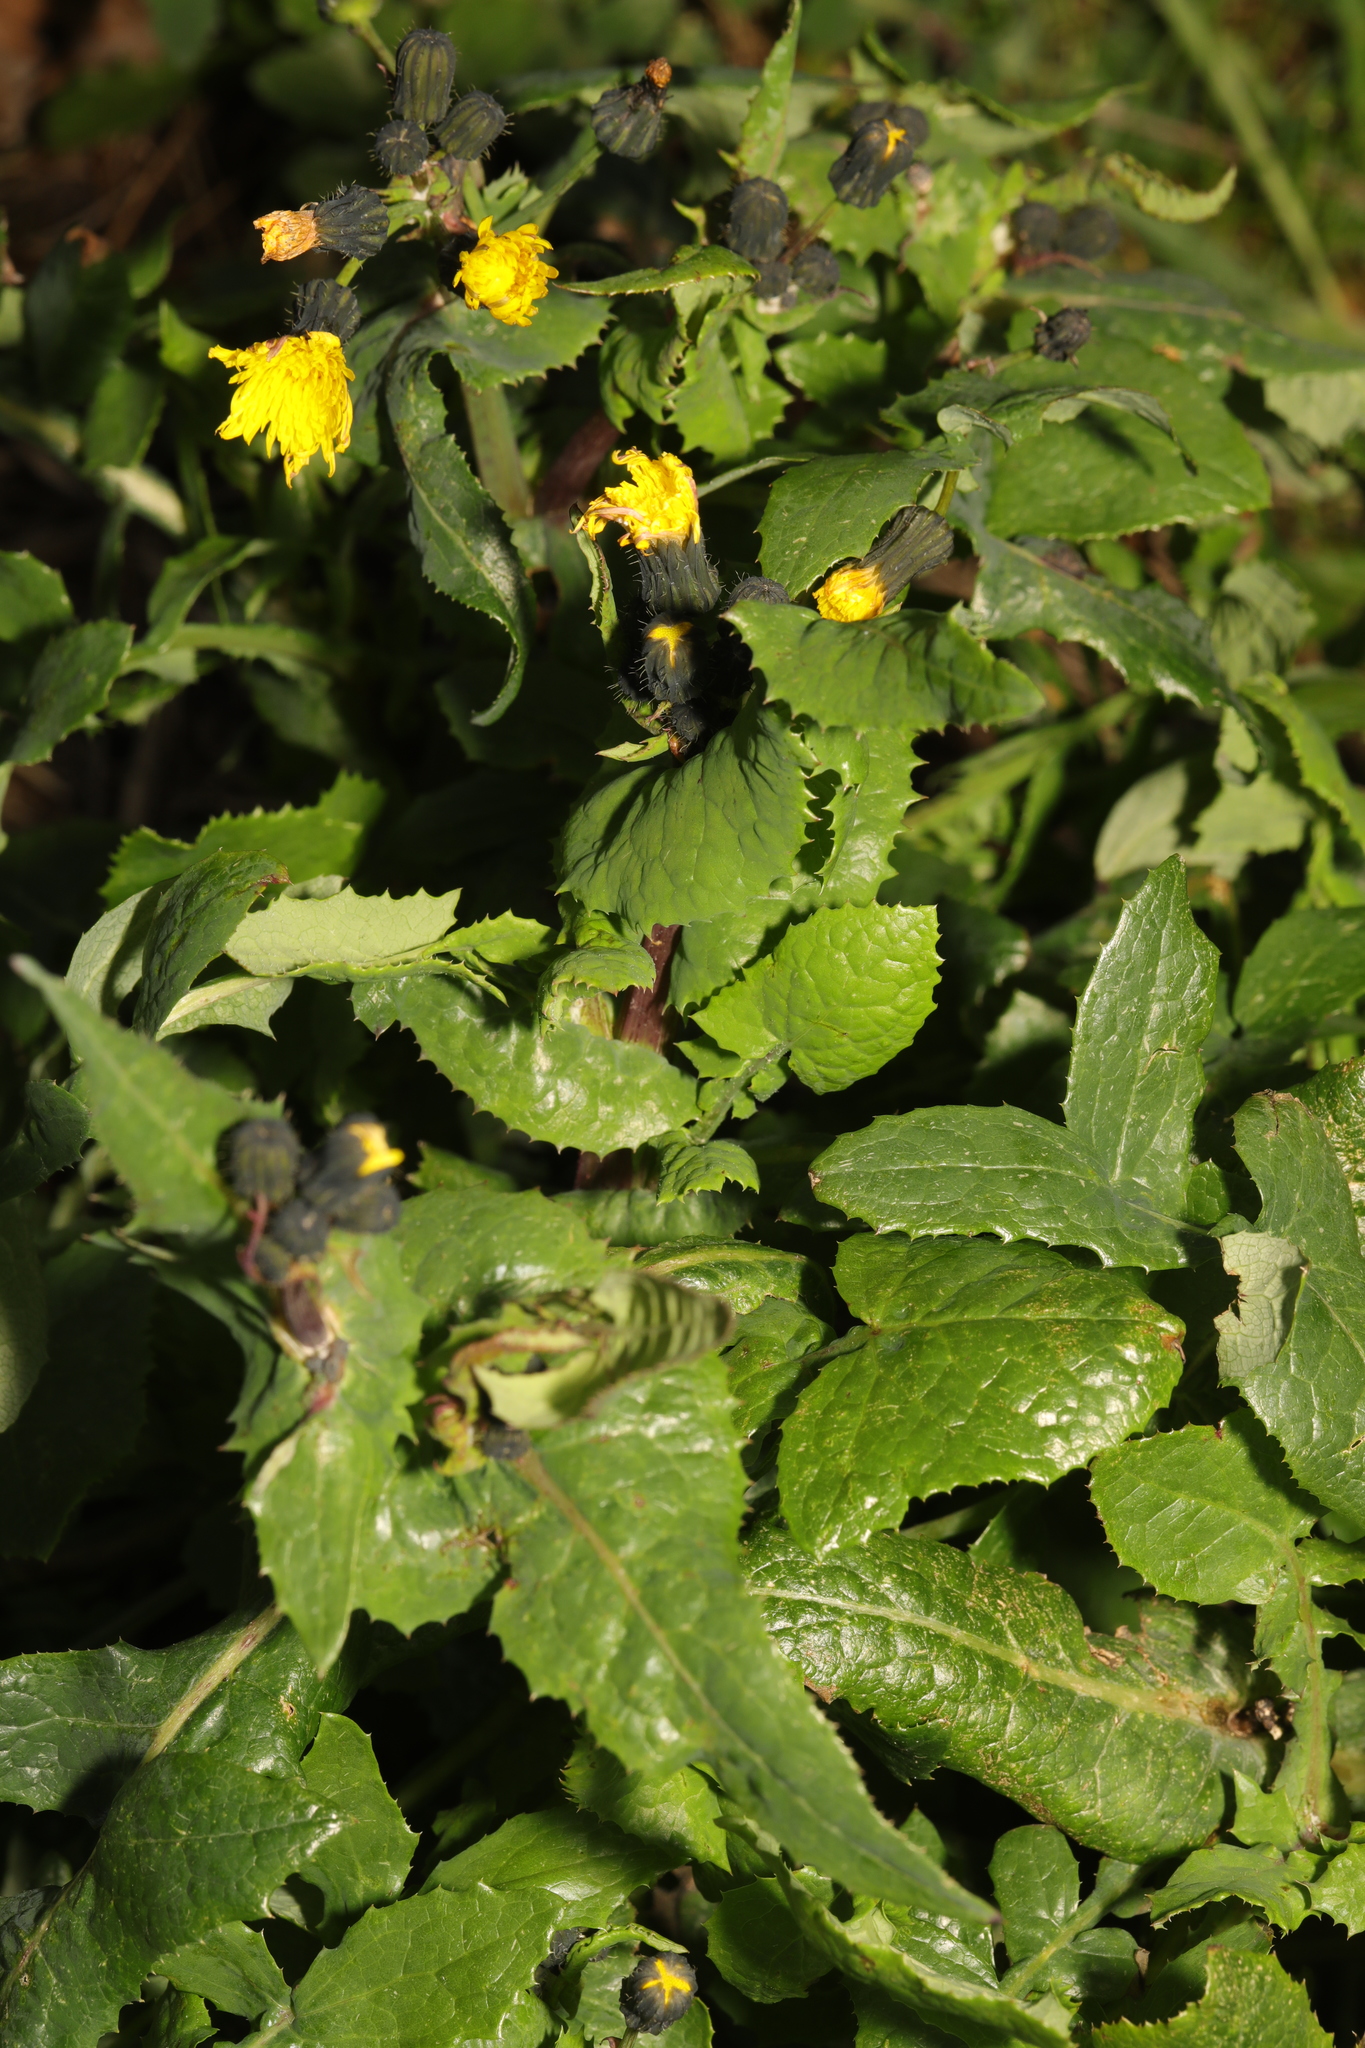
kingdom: Plantae
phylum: Tracheophyta
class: Magnoliopsida
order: Asterales
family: Asteraceae
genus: Sonchus
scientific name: Sonchus oleraceus
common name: Common sowthistle
